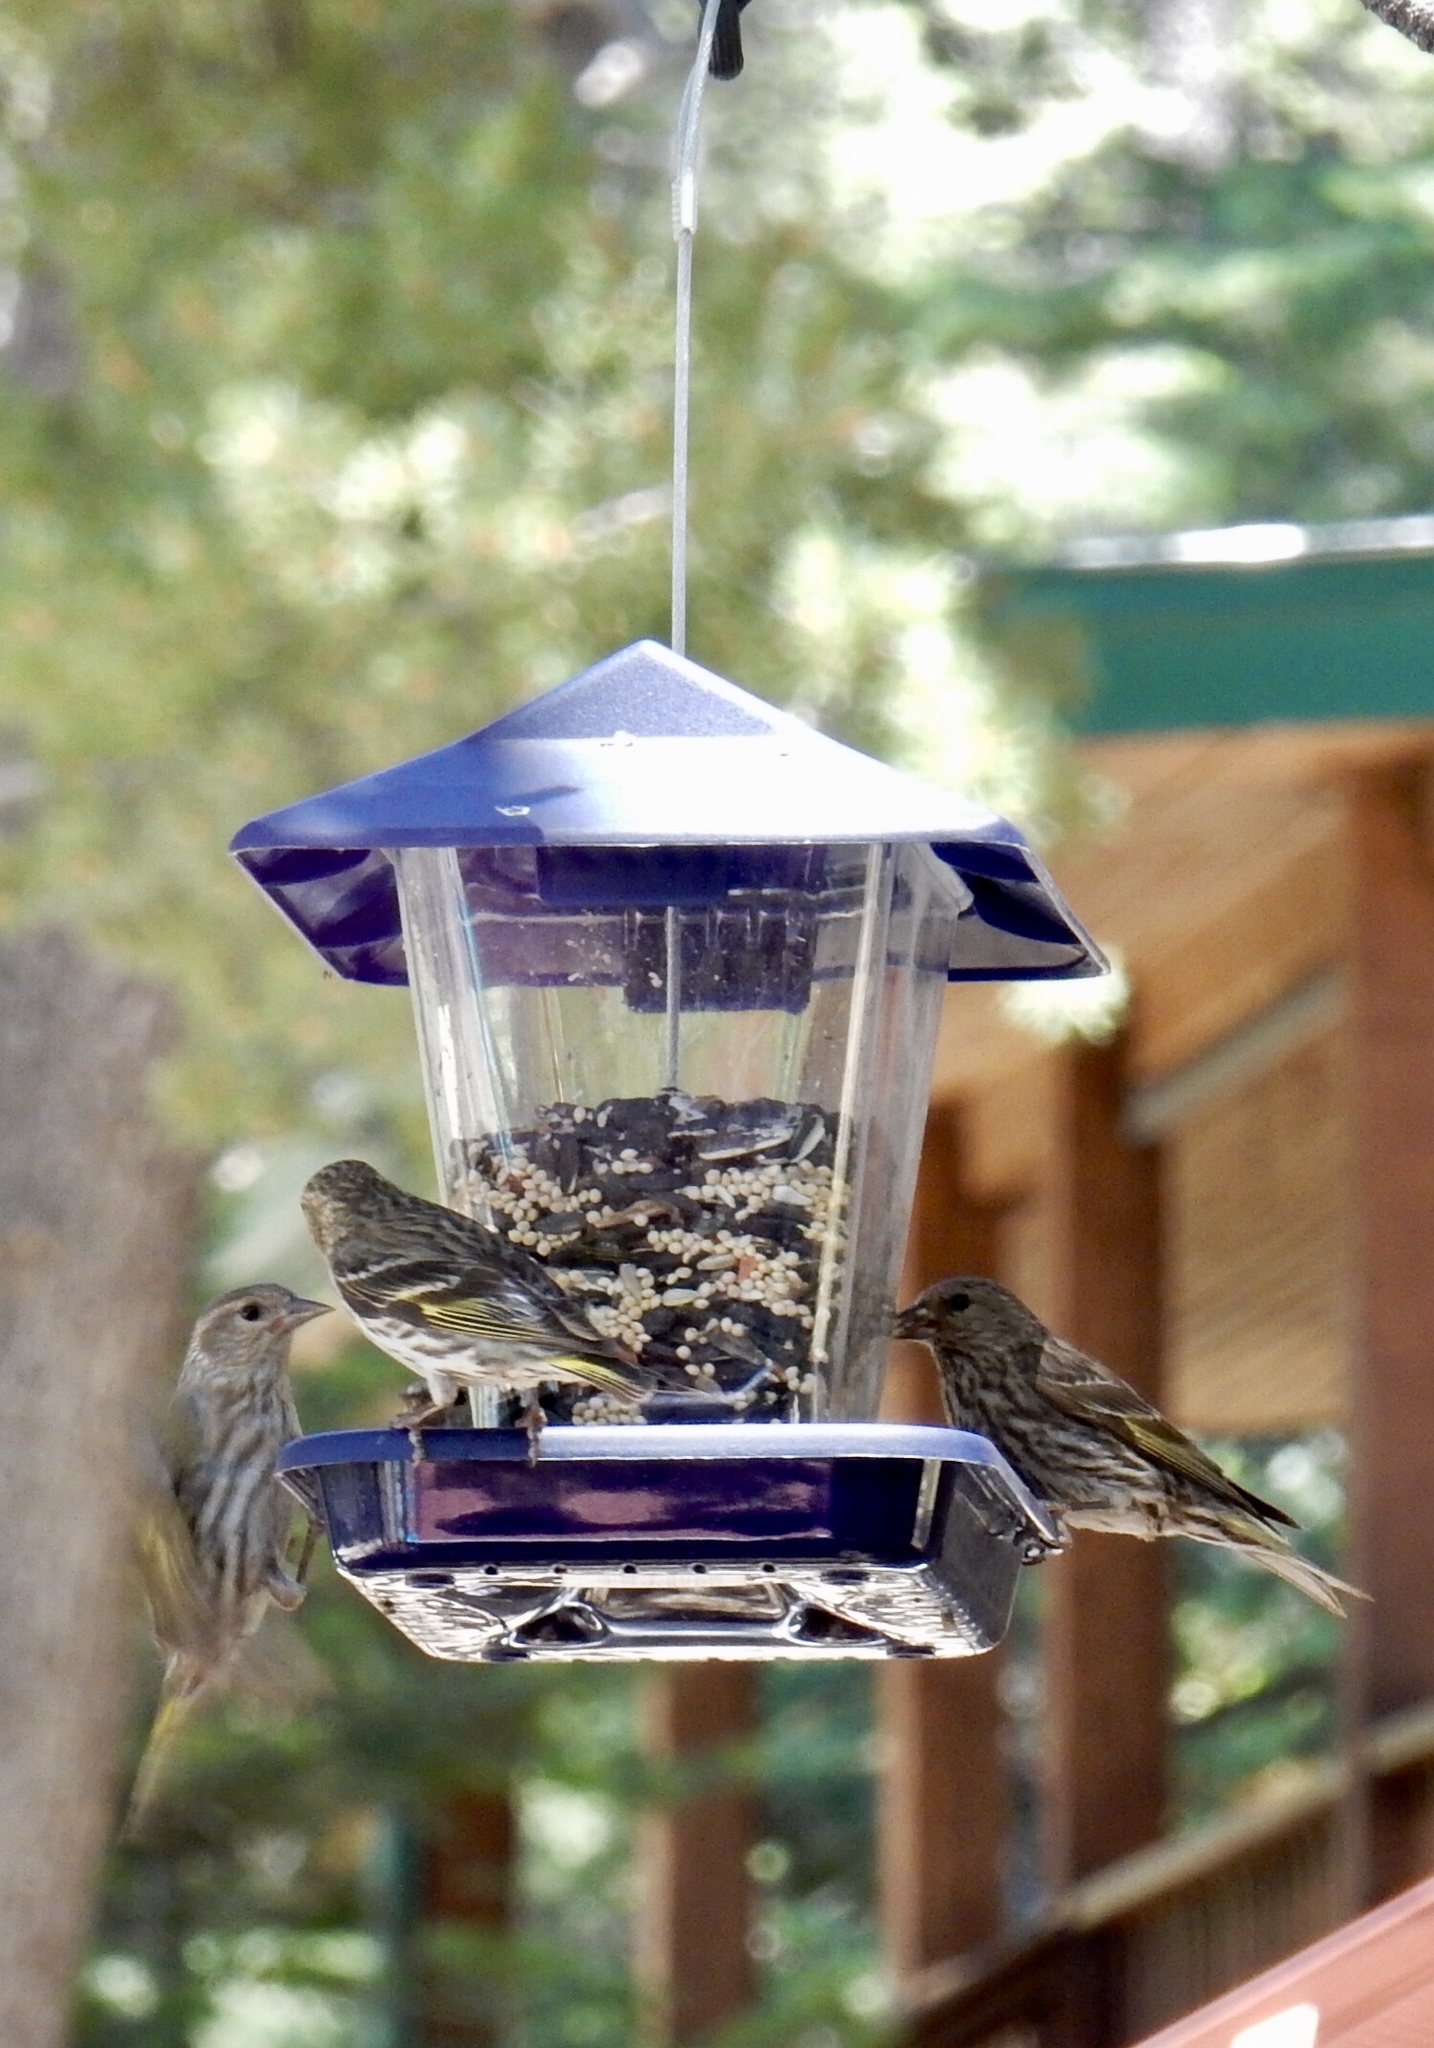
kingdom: Animalia
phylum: Chordata
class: Aves
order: Passeriformes
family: Fringillidae
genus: Spinus
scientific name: Spinus pinus
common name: Pine siskin
